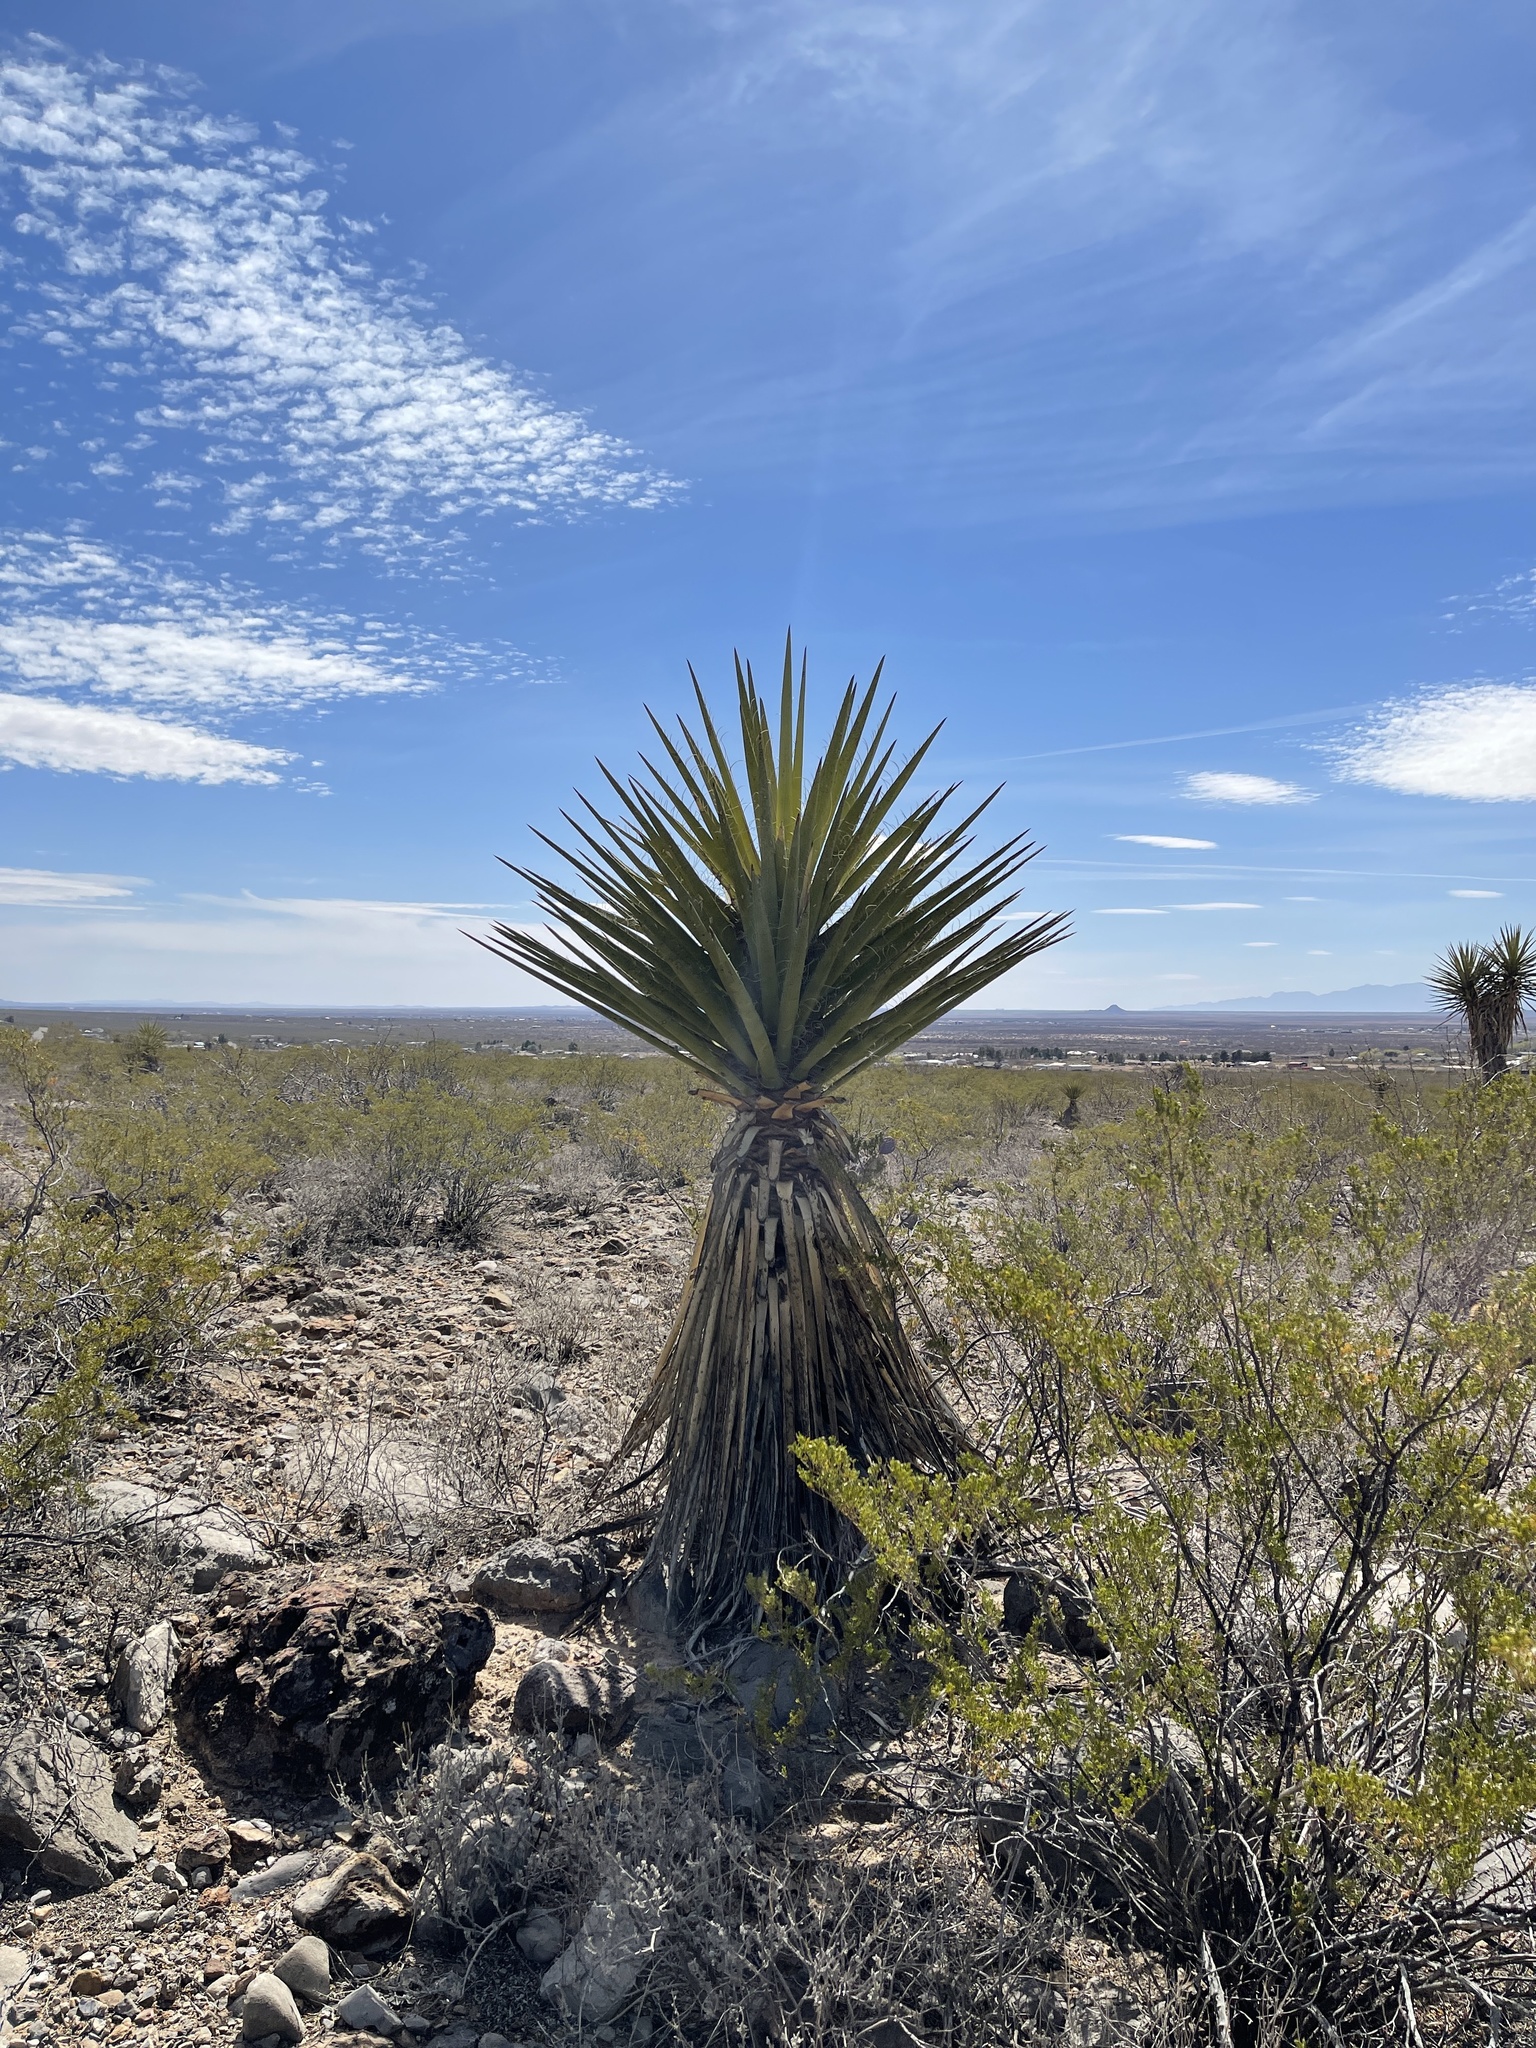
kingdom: Plantae
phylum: Tracheophyta
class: Liliopsida
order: Asparagales
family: Asparagaceae
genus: Yucca
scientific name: Yucca treculiana
